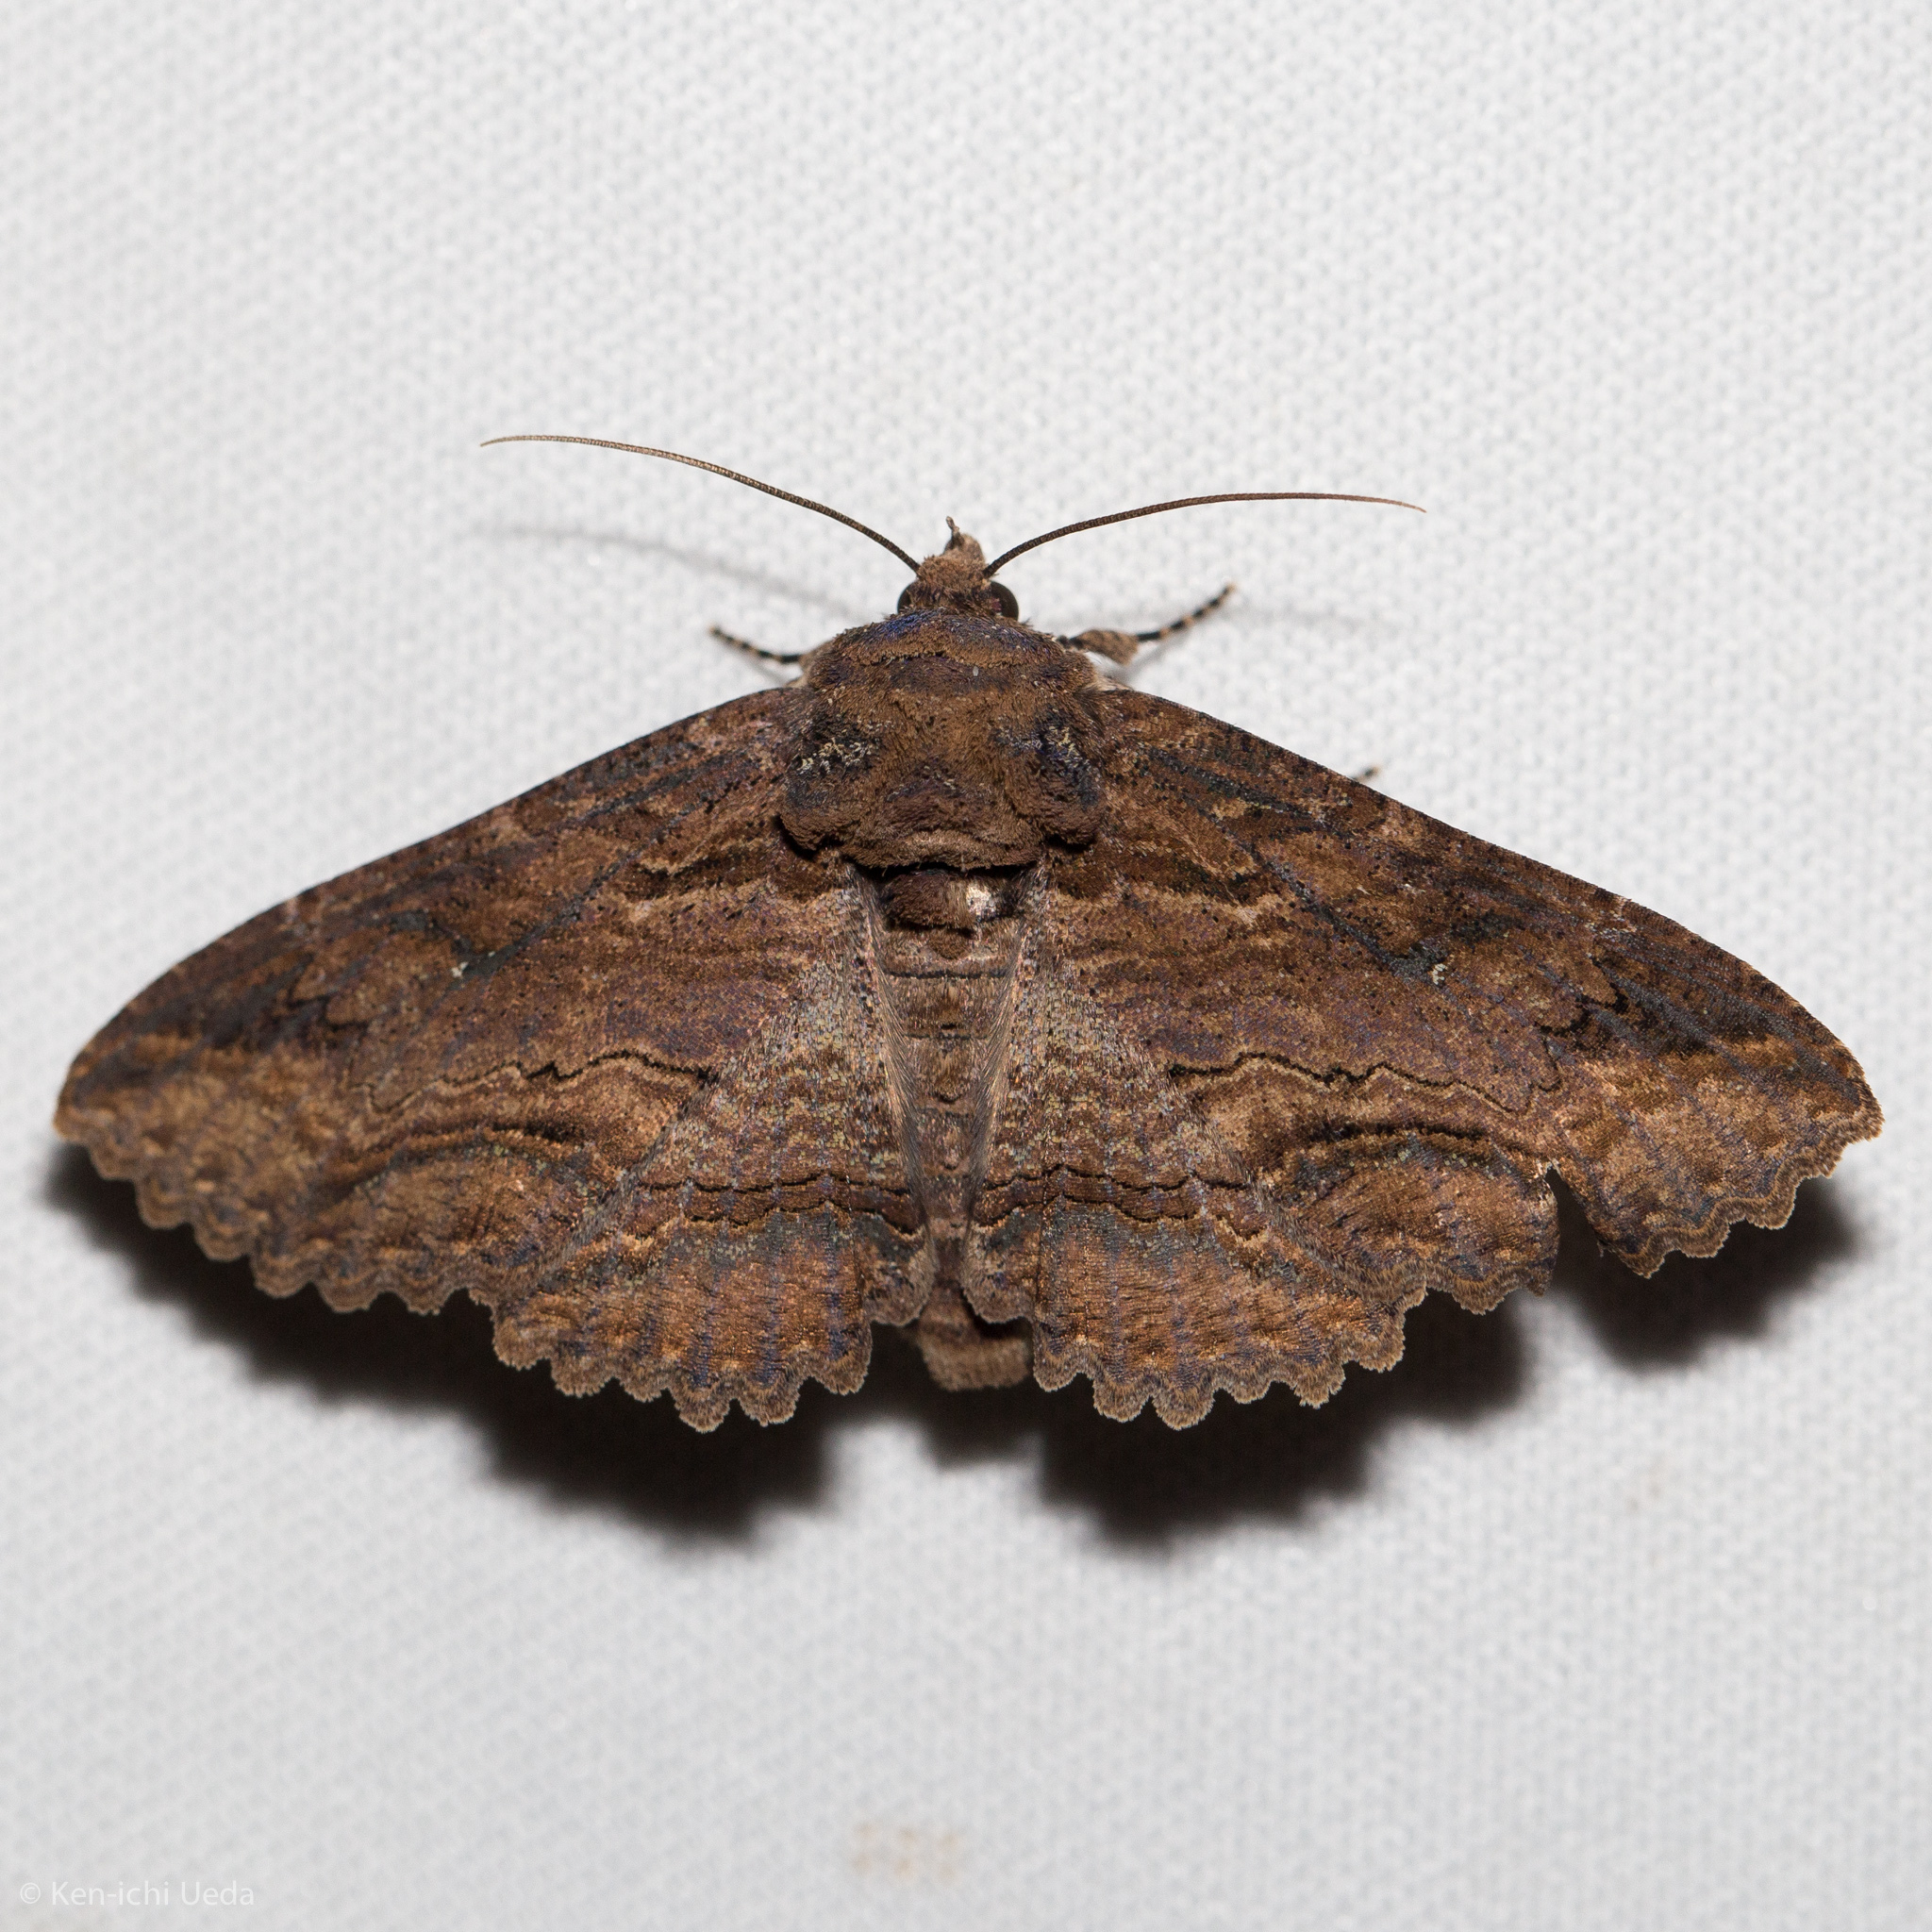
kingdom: Animalia
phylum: Arthropoda
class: Insecta
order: Lepidoptera
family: Erebidae
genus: Zale
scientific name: Zale lunata
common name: Lunate zale moth
